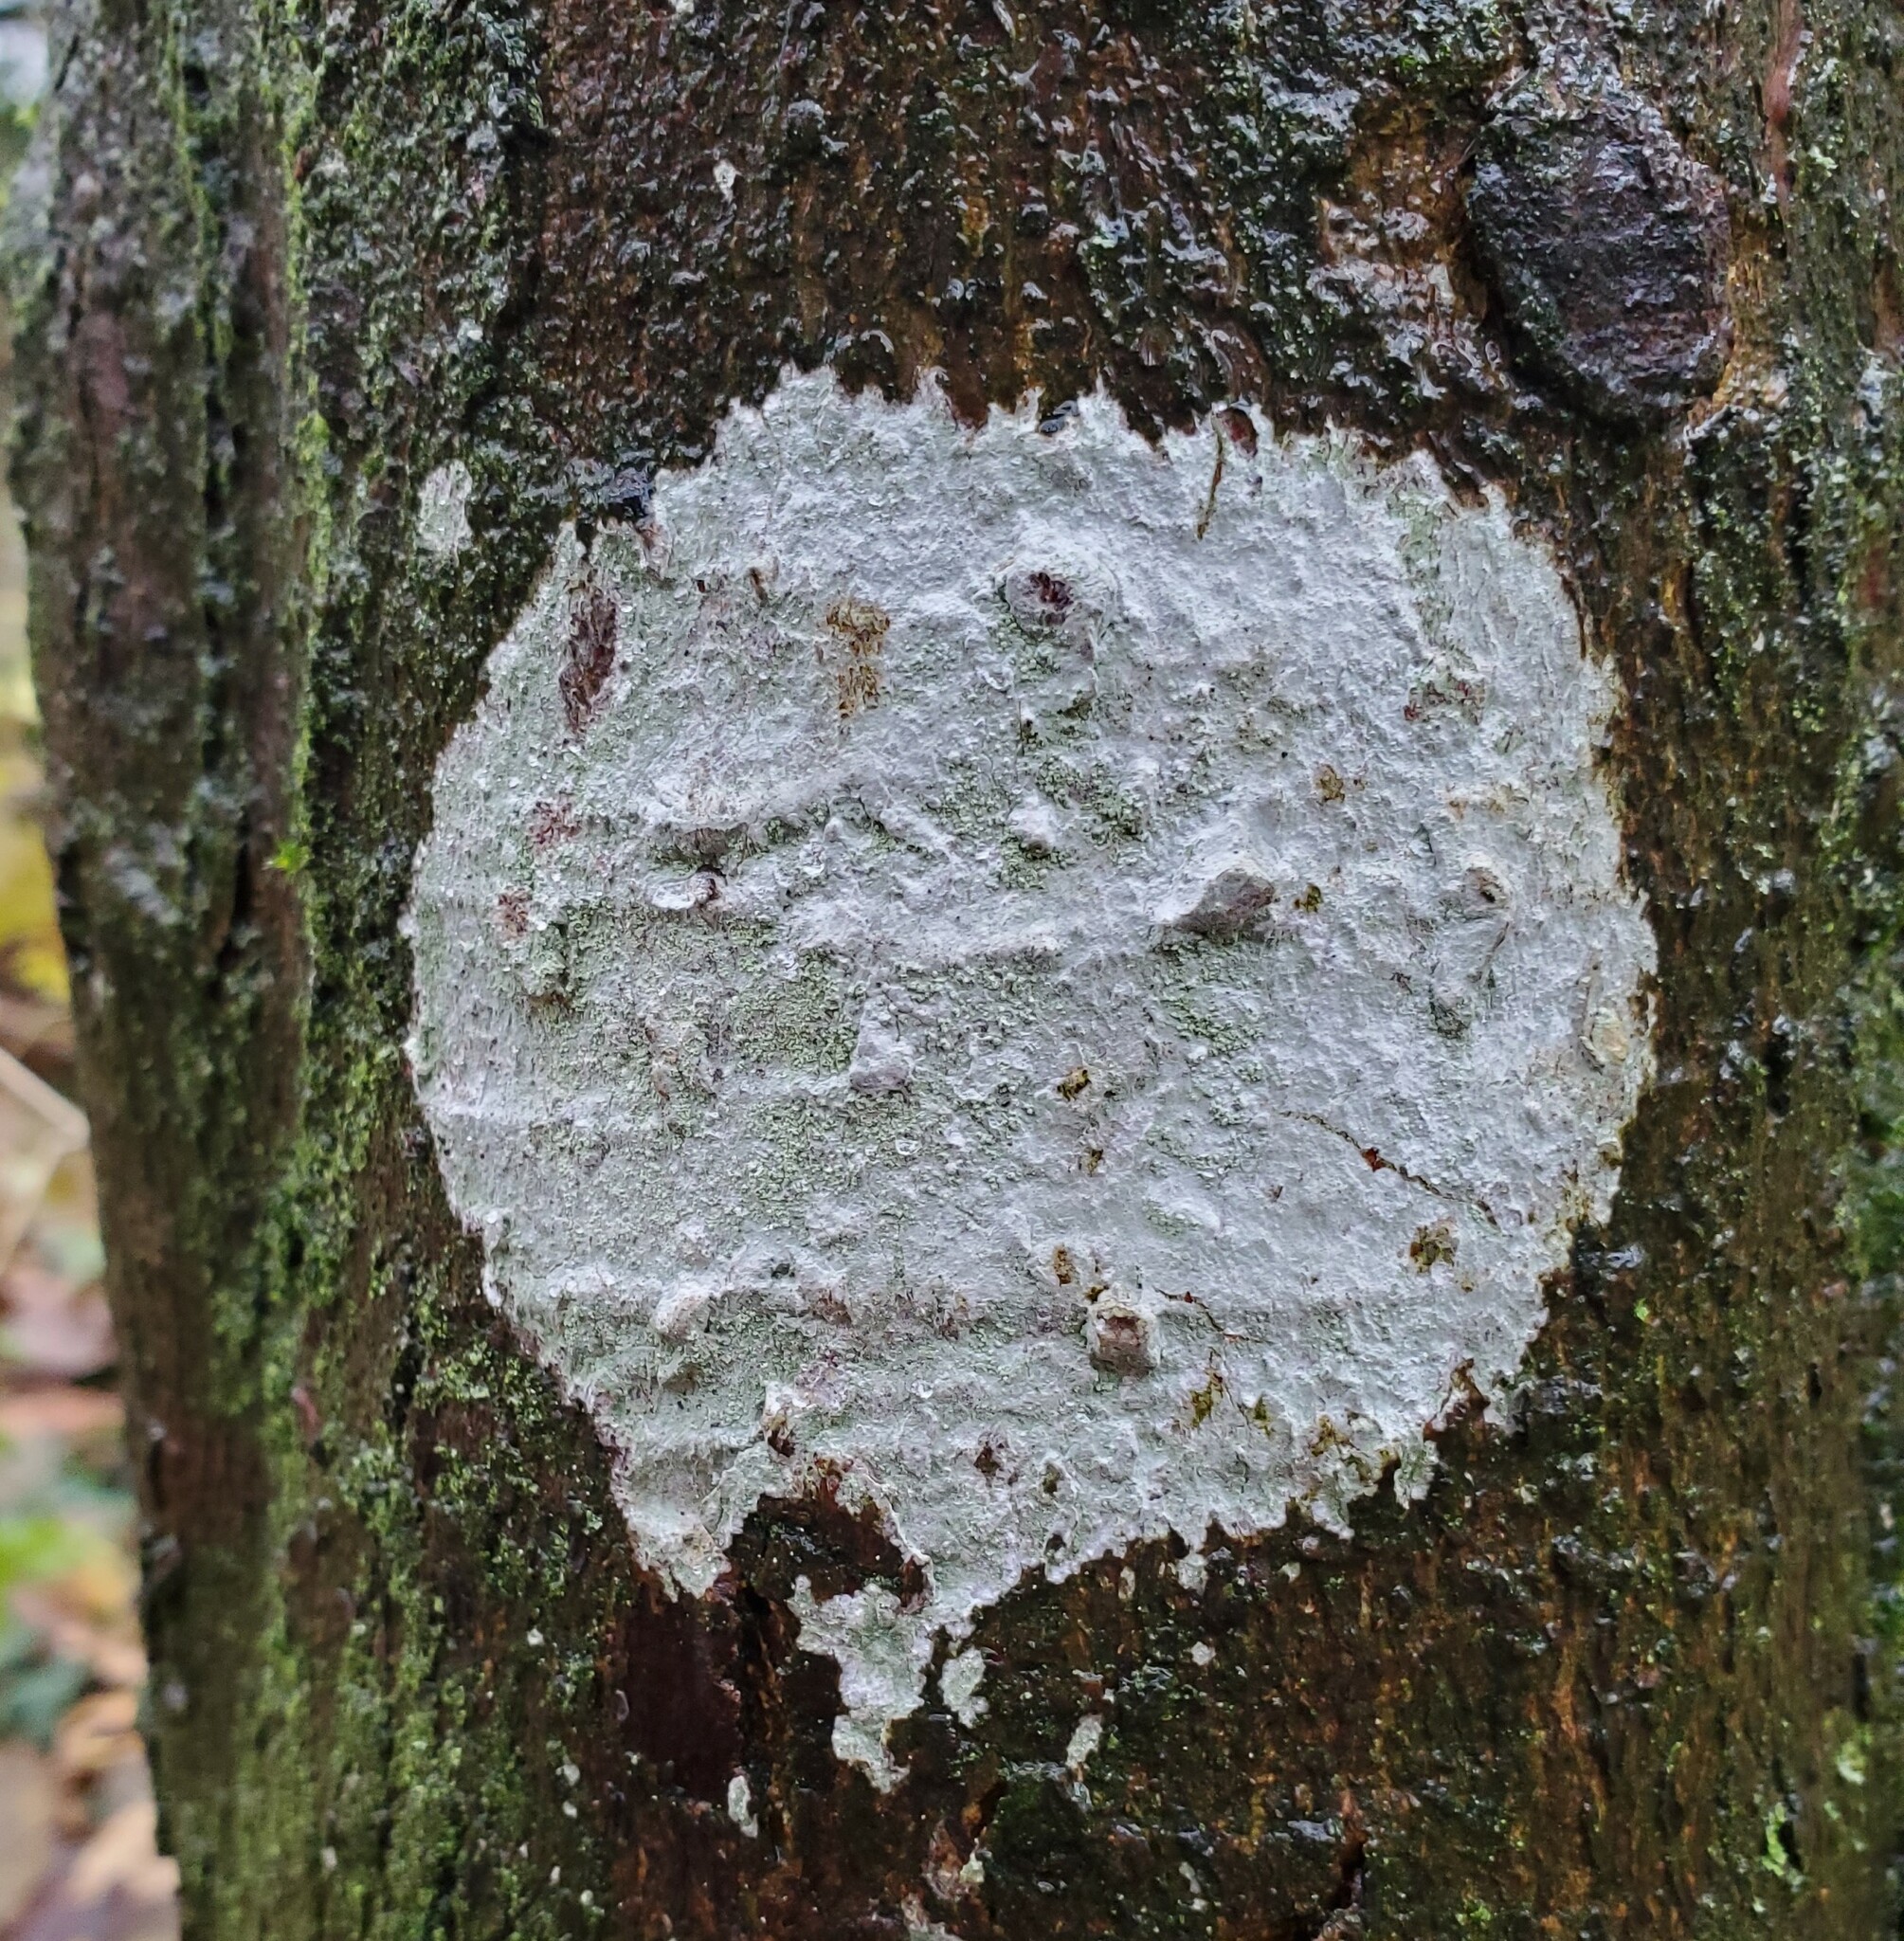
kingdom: Fungi
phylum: Ascomycota
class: Lecanoromycetes
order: Ostropales
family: Phlyctidaceae
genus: Phlyctis
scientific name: Phlyctis argena
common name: Whitewash lichen
